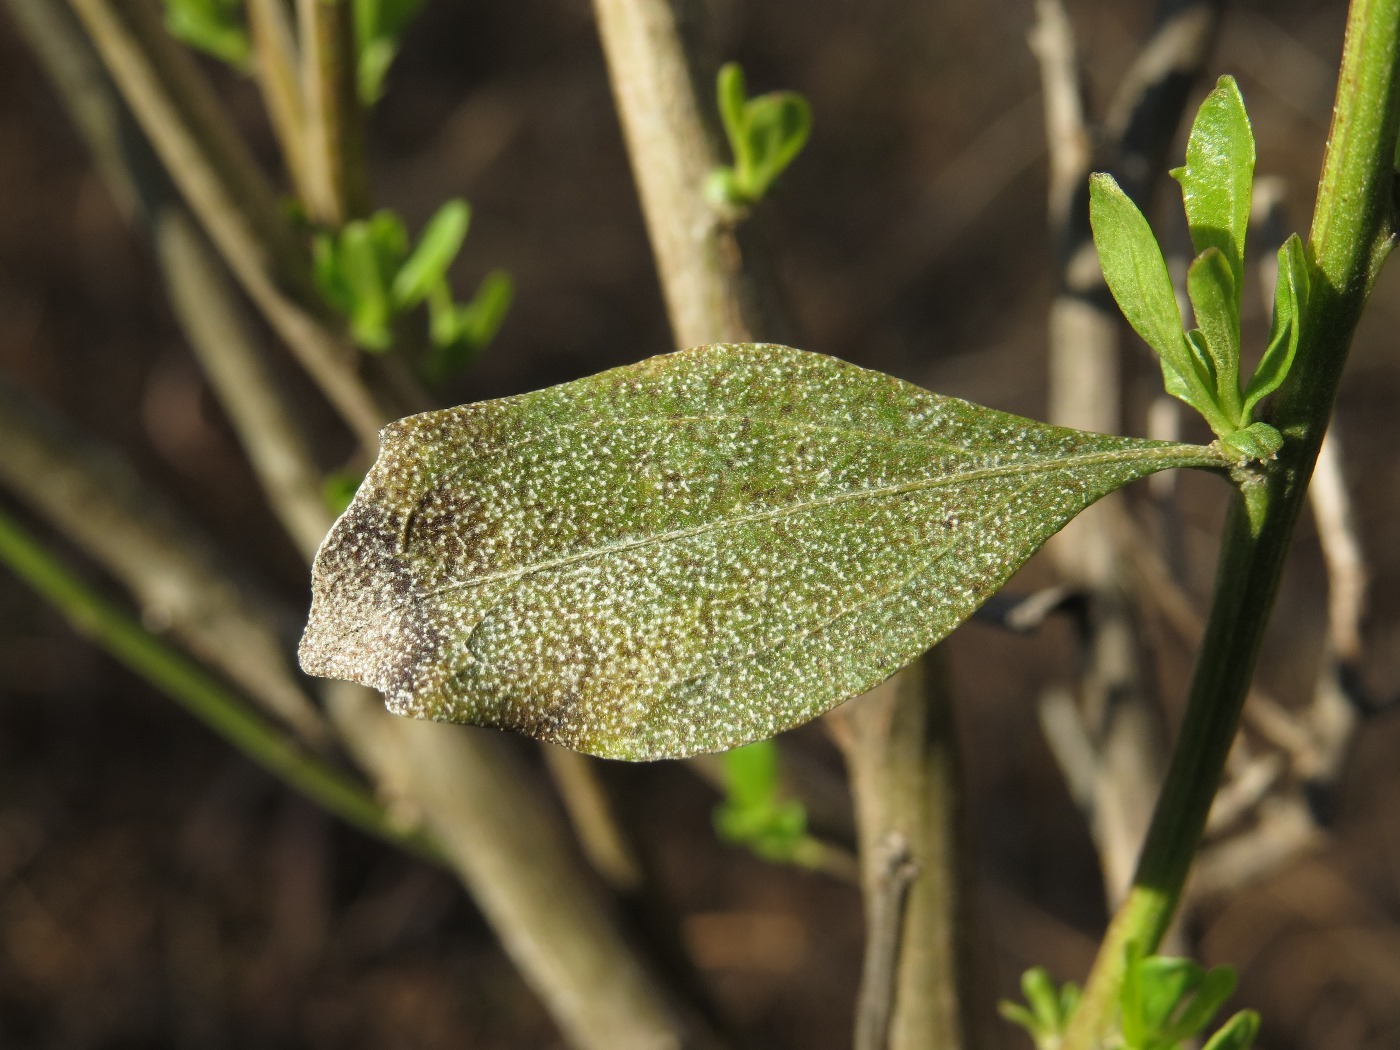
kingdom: Plantae
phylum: Tracheophyta
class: Magnoliopsida
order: Asterales
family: Asteraceae
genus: Baccharis
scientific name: Baccharis halimifolia
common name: Eastern baccharis
